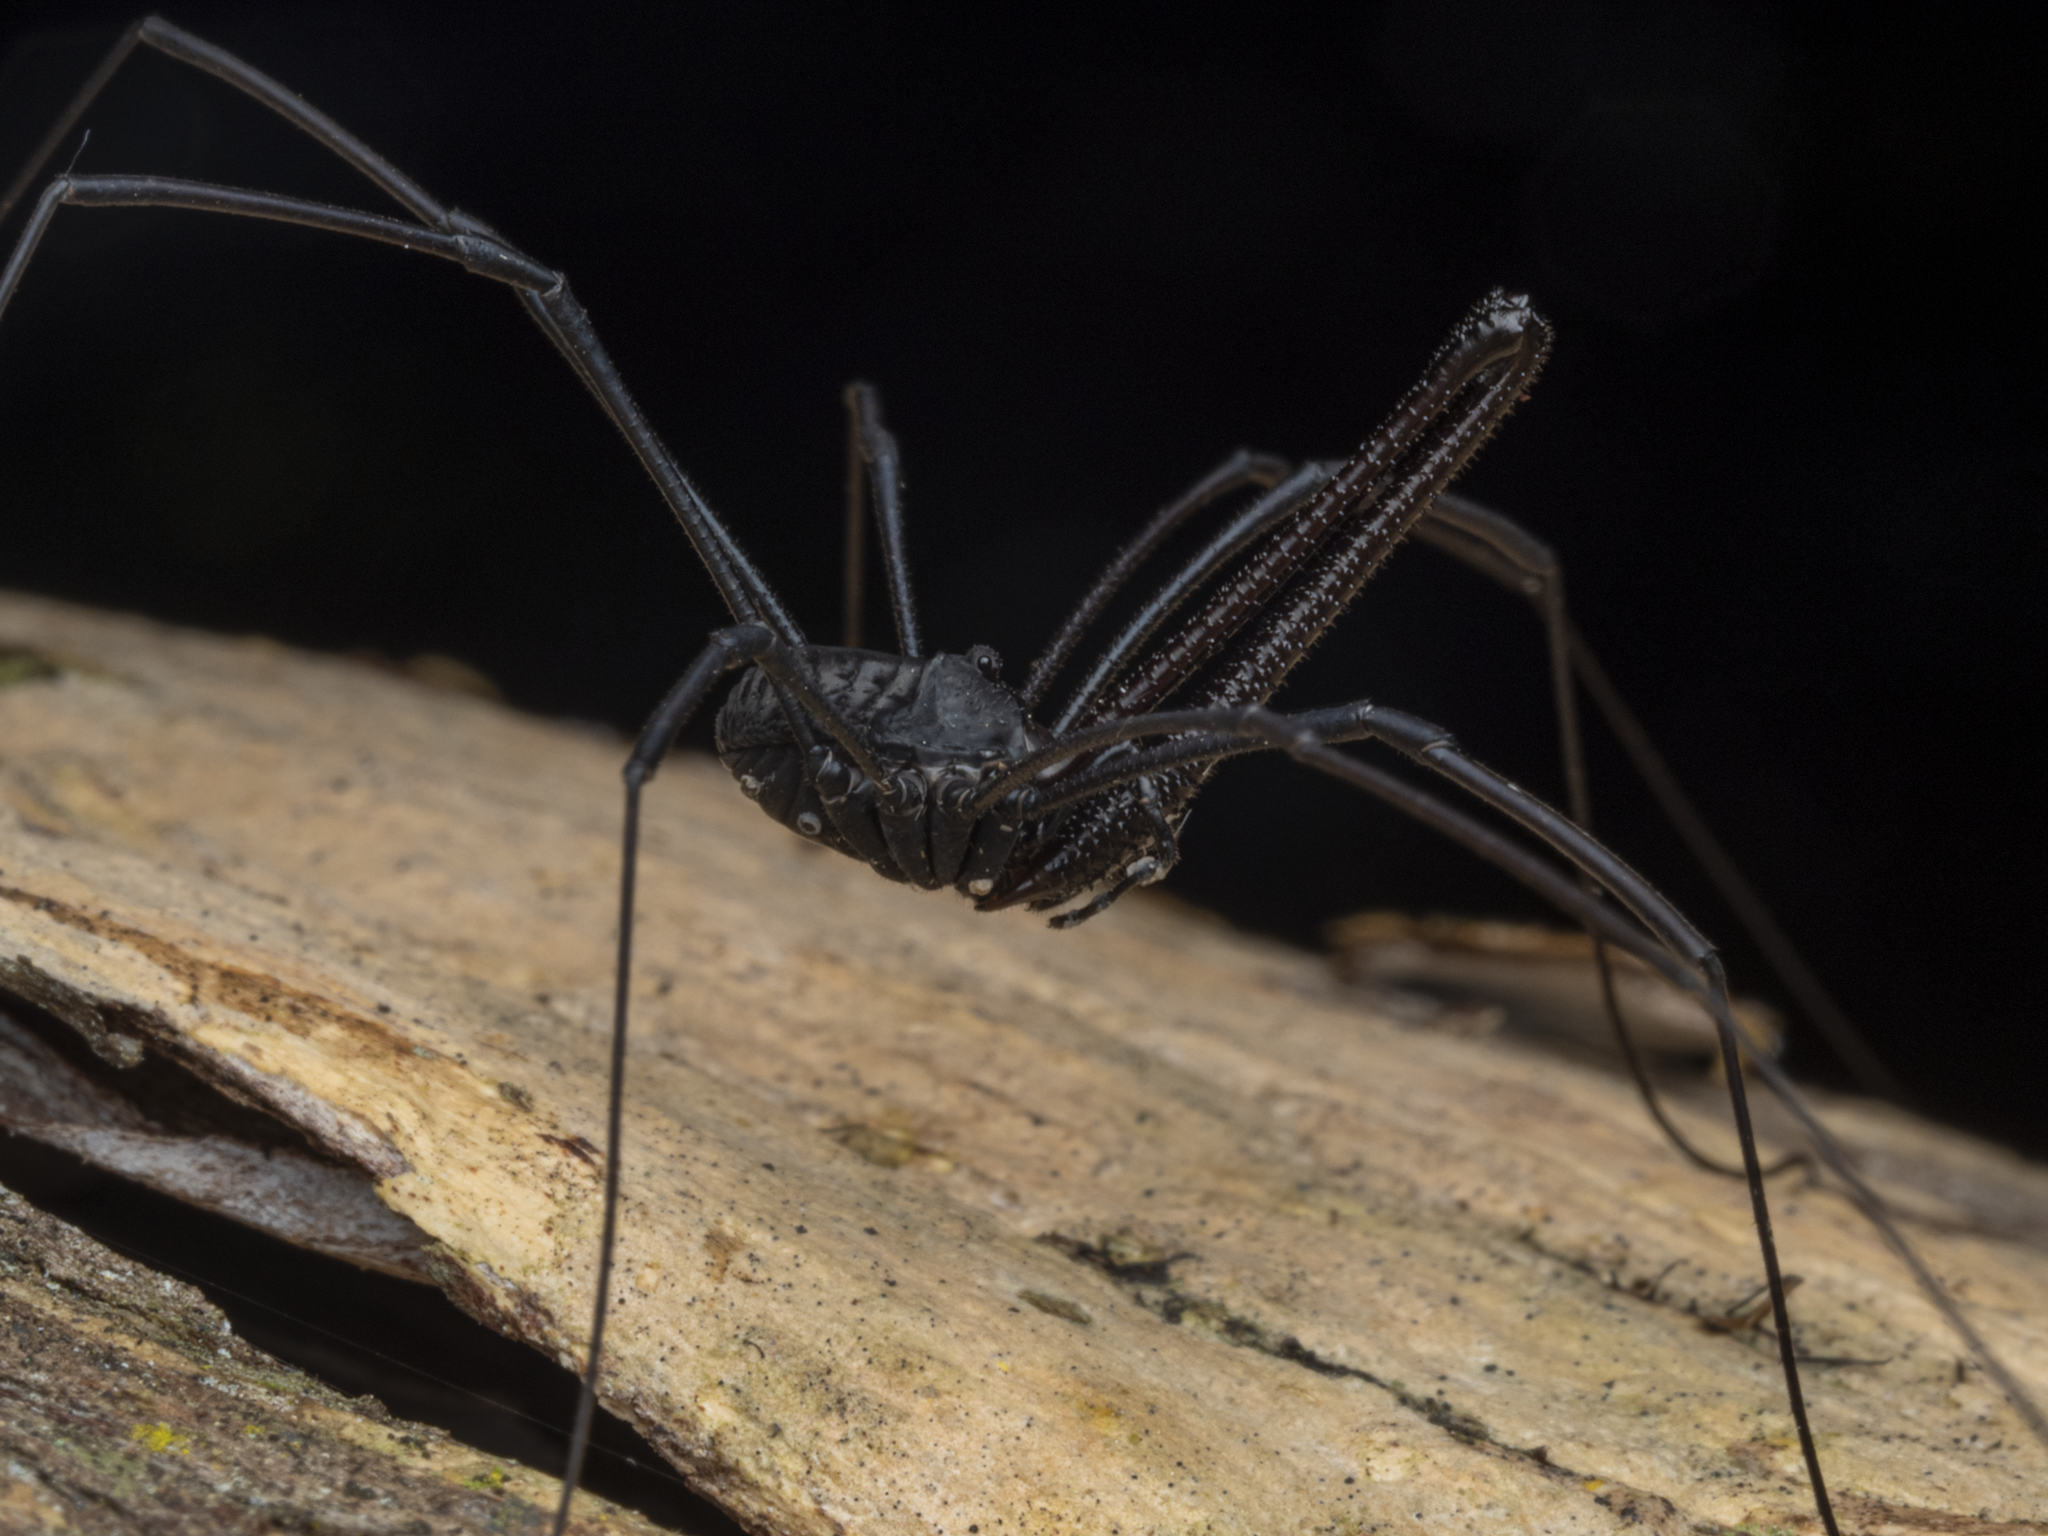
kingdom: Animalia
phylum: Arthropoda
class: Arachnida
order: Opiliones
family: Neopilionidae
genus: Pantopsalis
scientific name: Pantopsalis albipalpis
